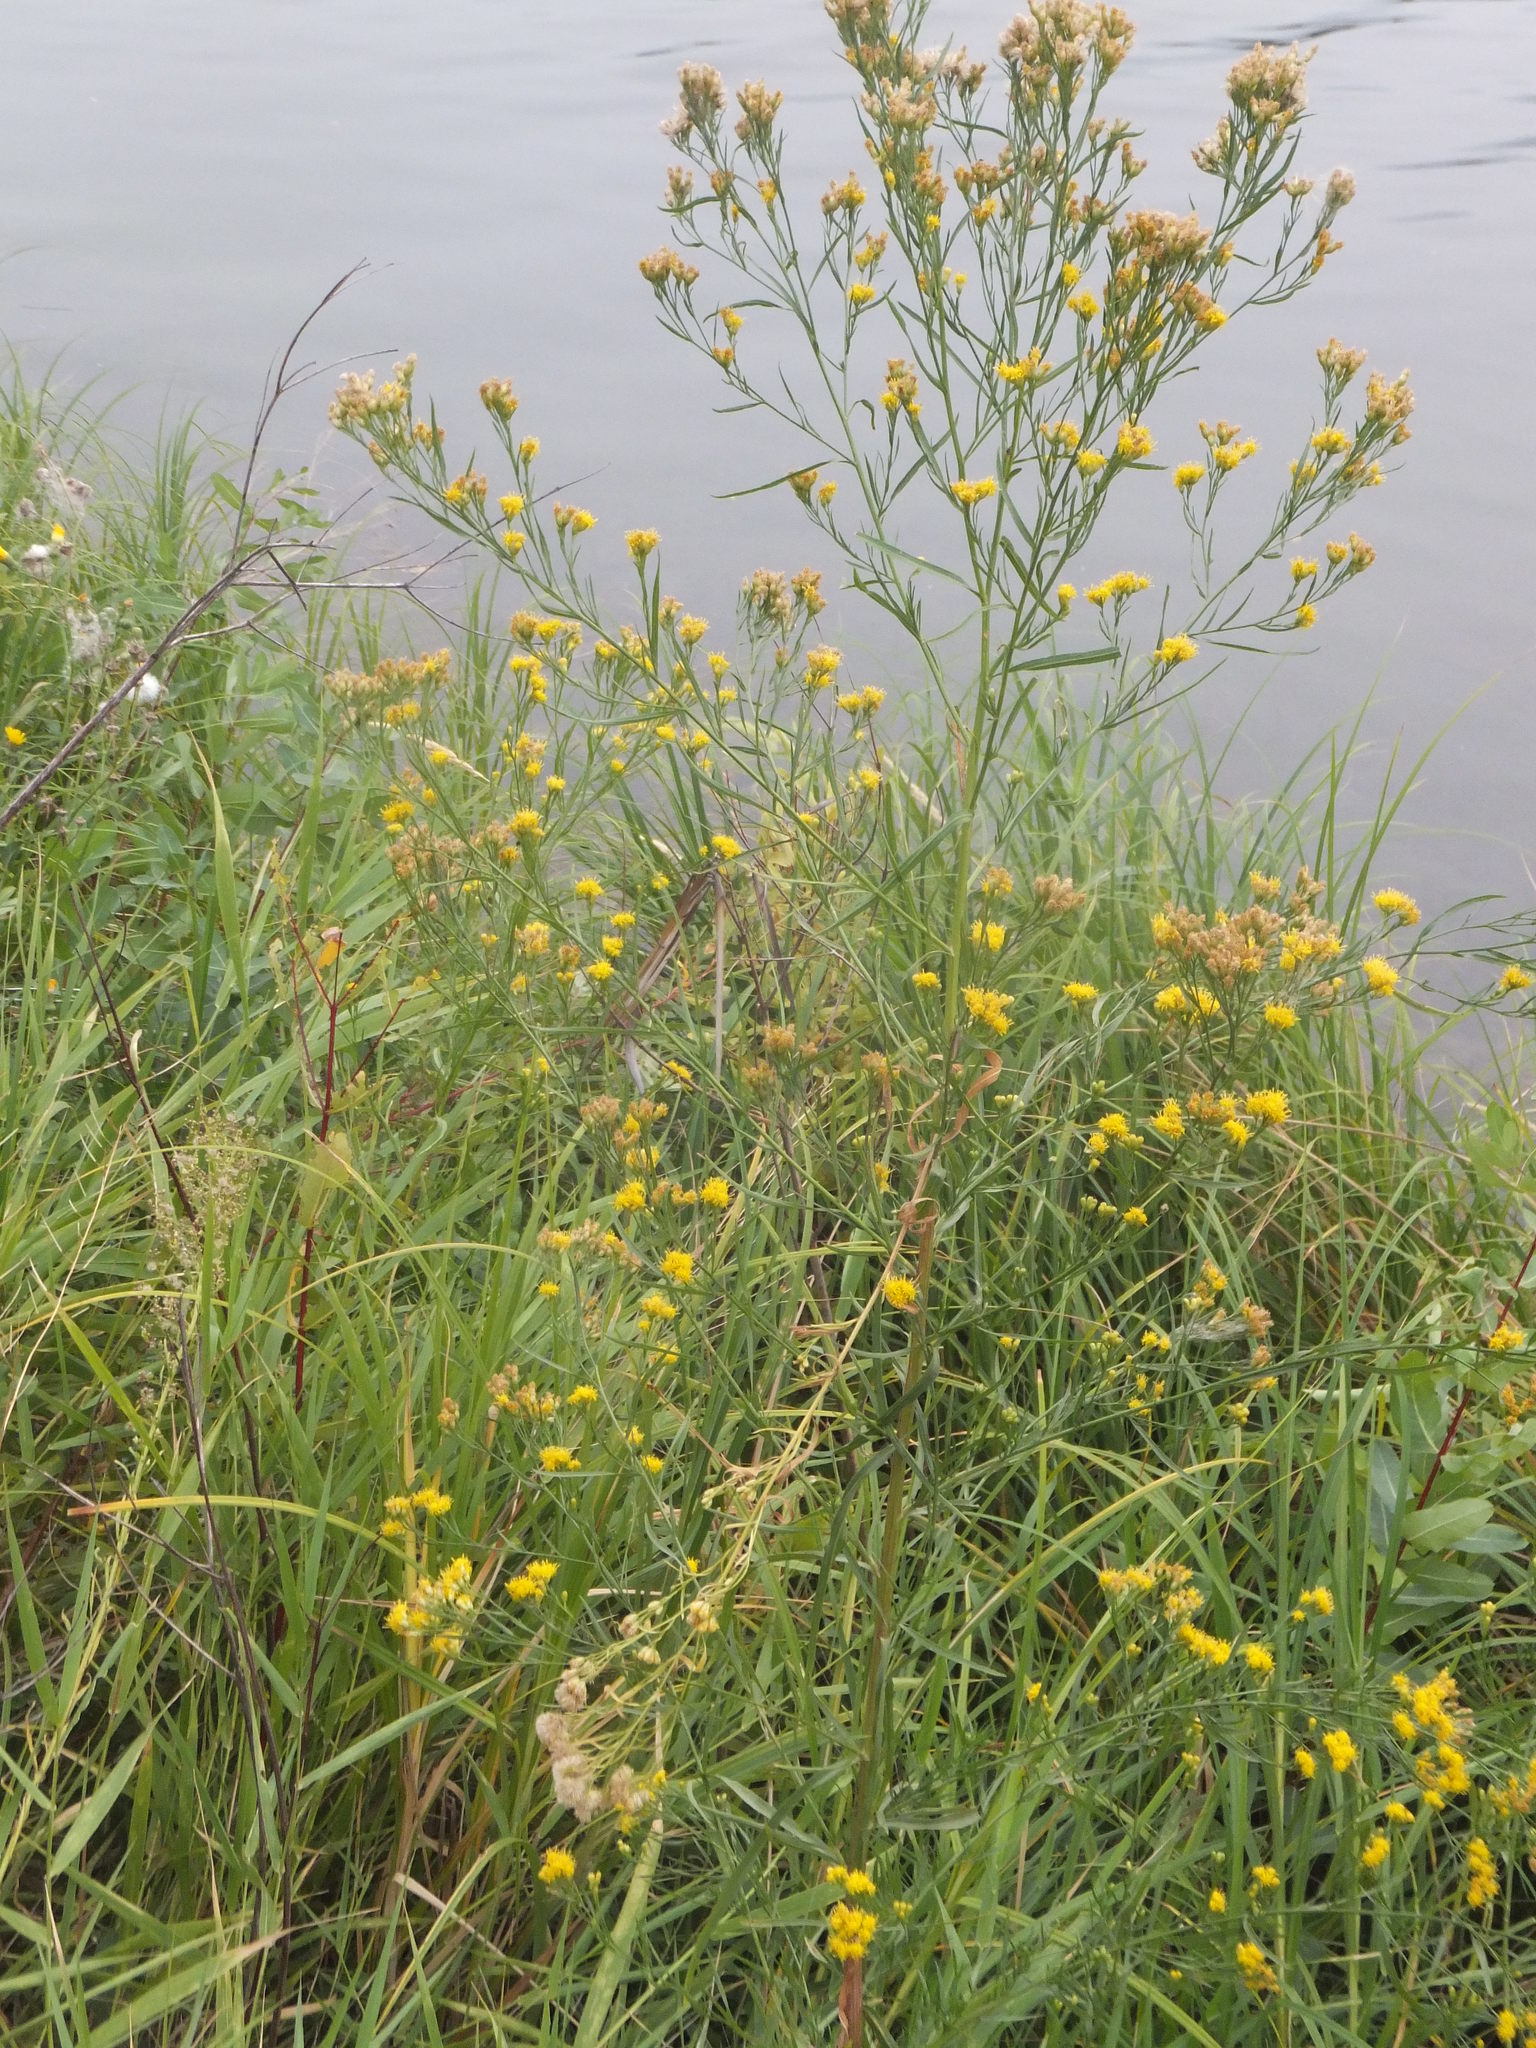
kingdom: Plantae
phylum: Tracheophyta
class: Magnoliopsida
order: Asterales
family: Asteraceae
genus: Euthamia
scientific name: Euthamia occidentalis
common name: Western goldentop
